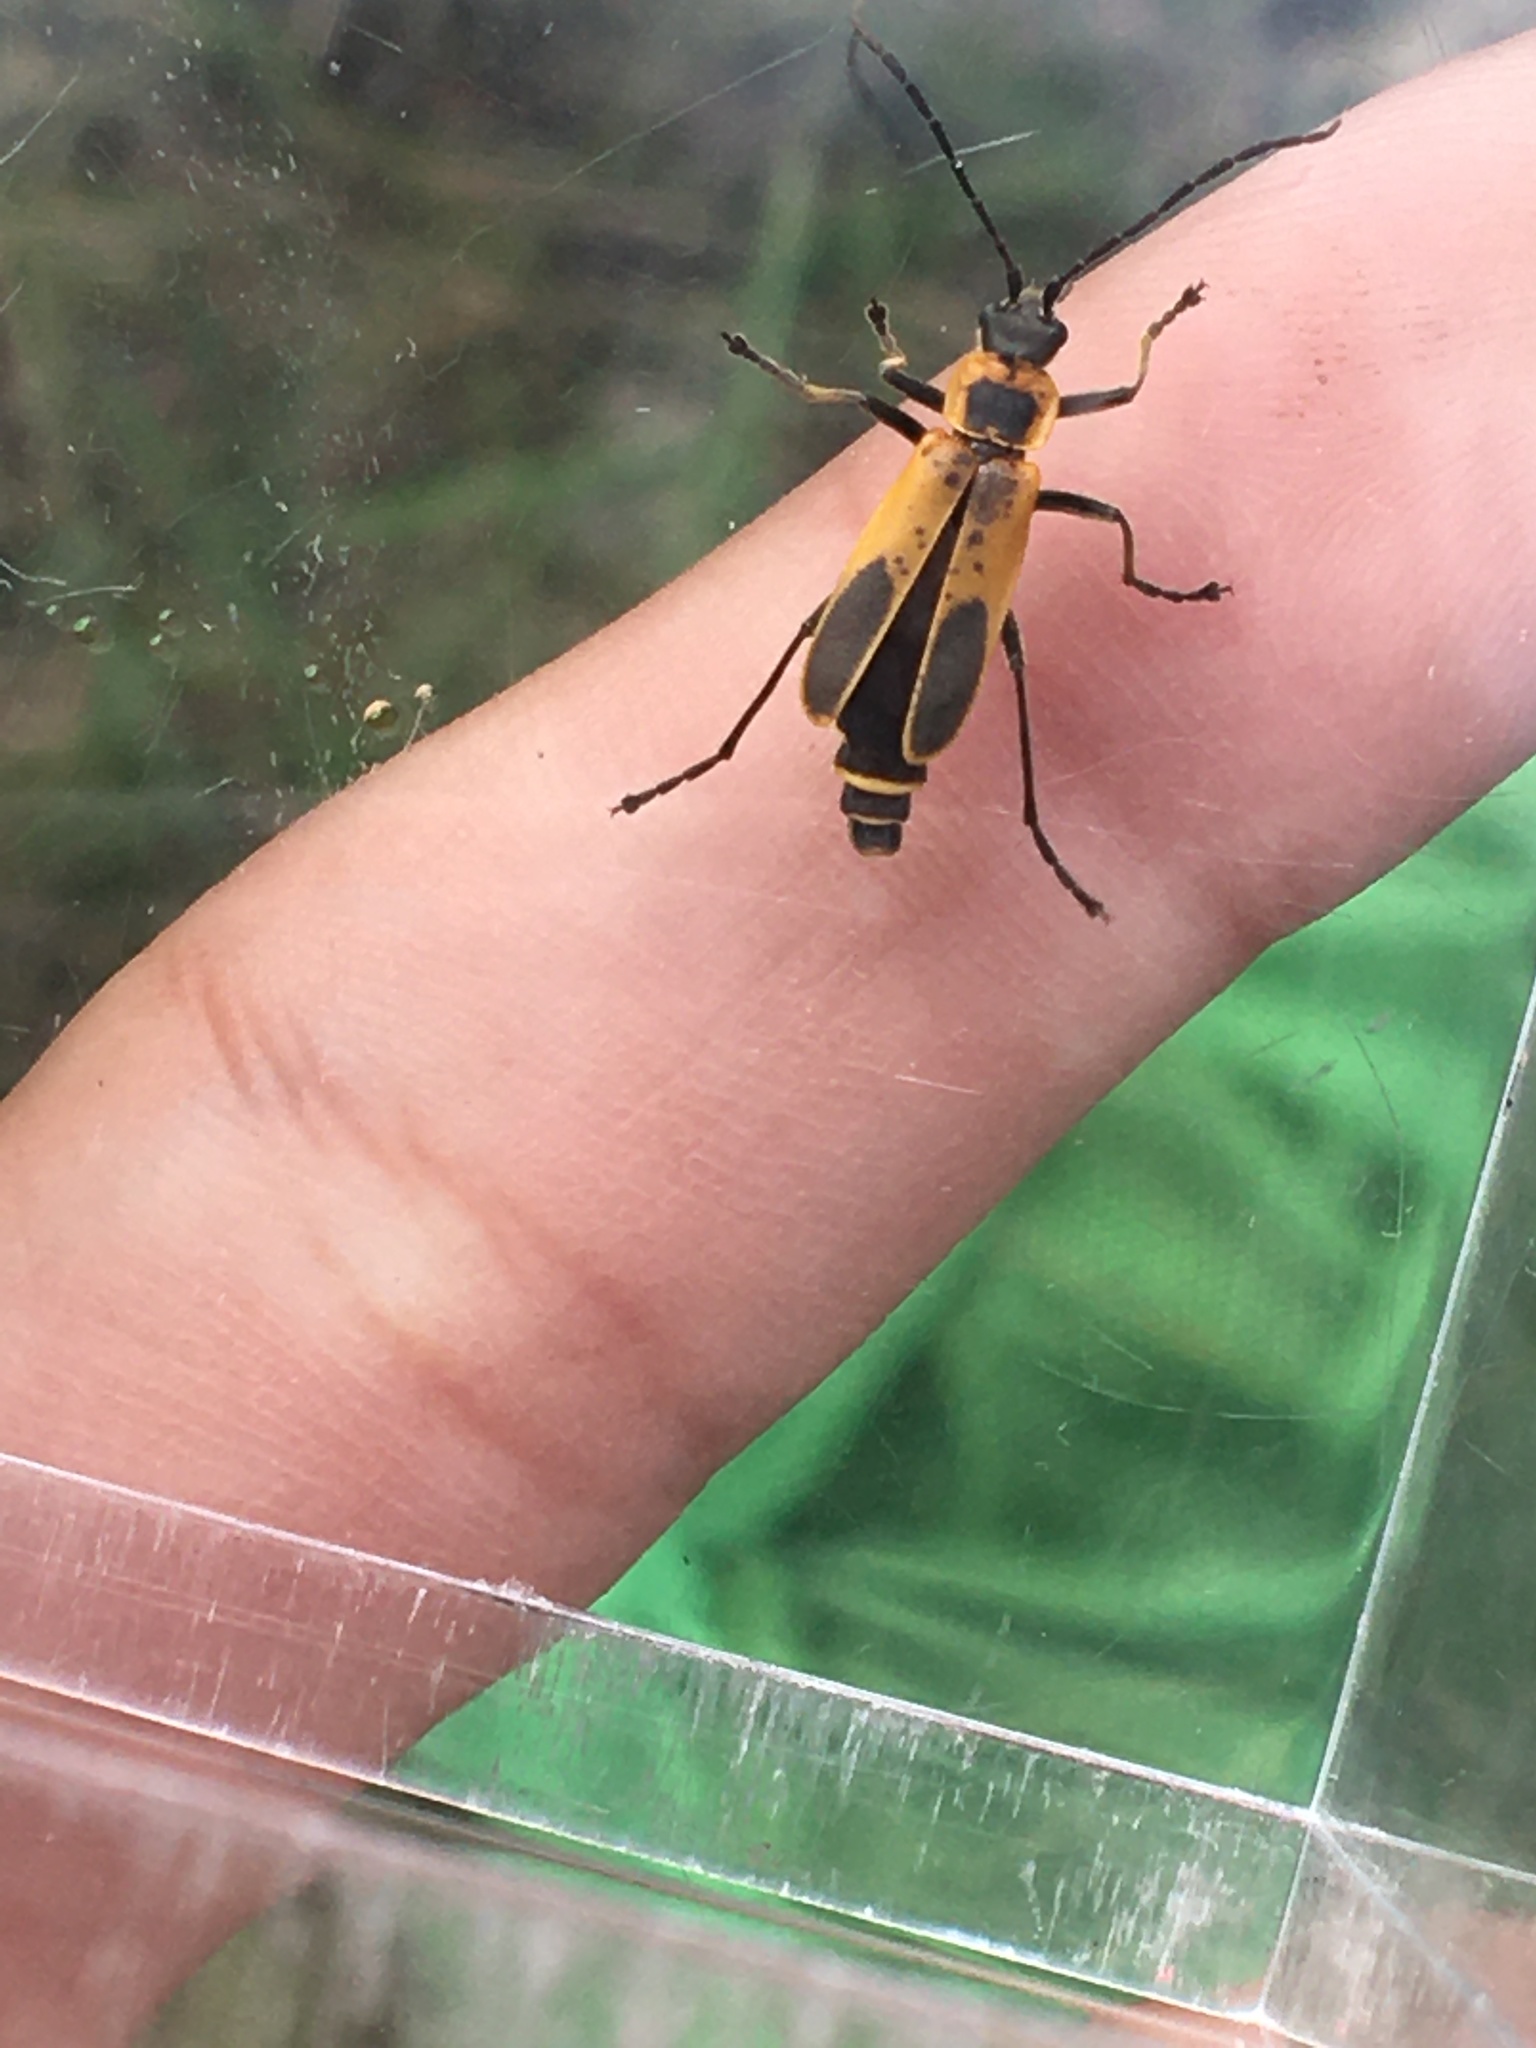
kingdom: Animalia
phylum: Arthropoda
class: Insecta
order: Coleoptera
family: Cantharidae
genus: Chauliognathus
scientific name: Chauliognathus pensylvanicus
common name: Goldenrod soldier beetle
